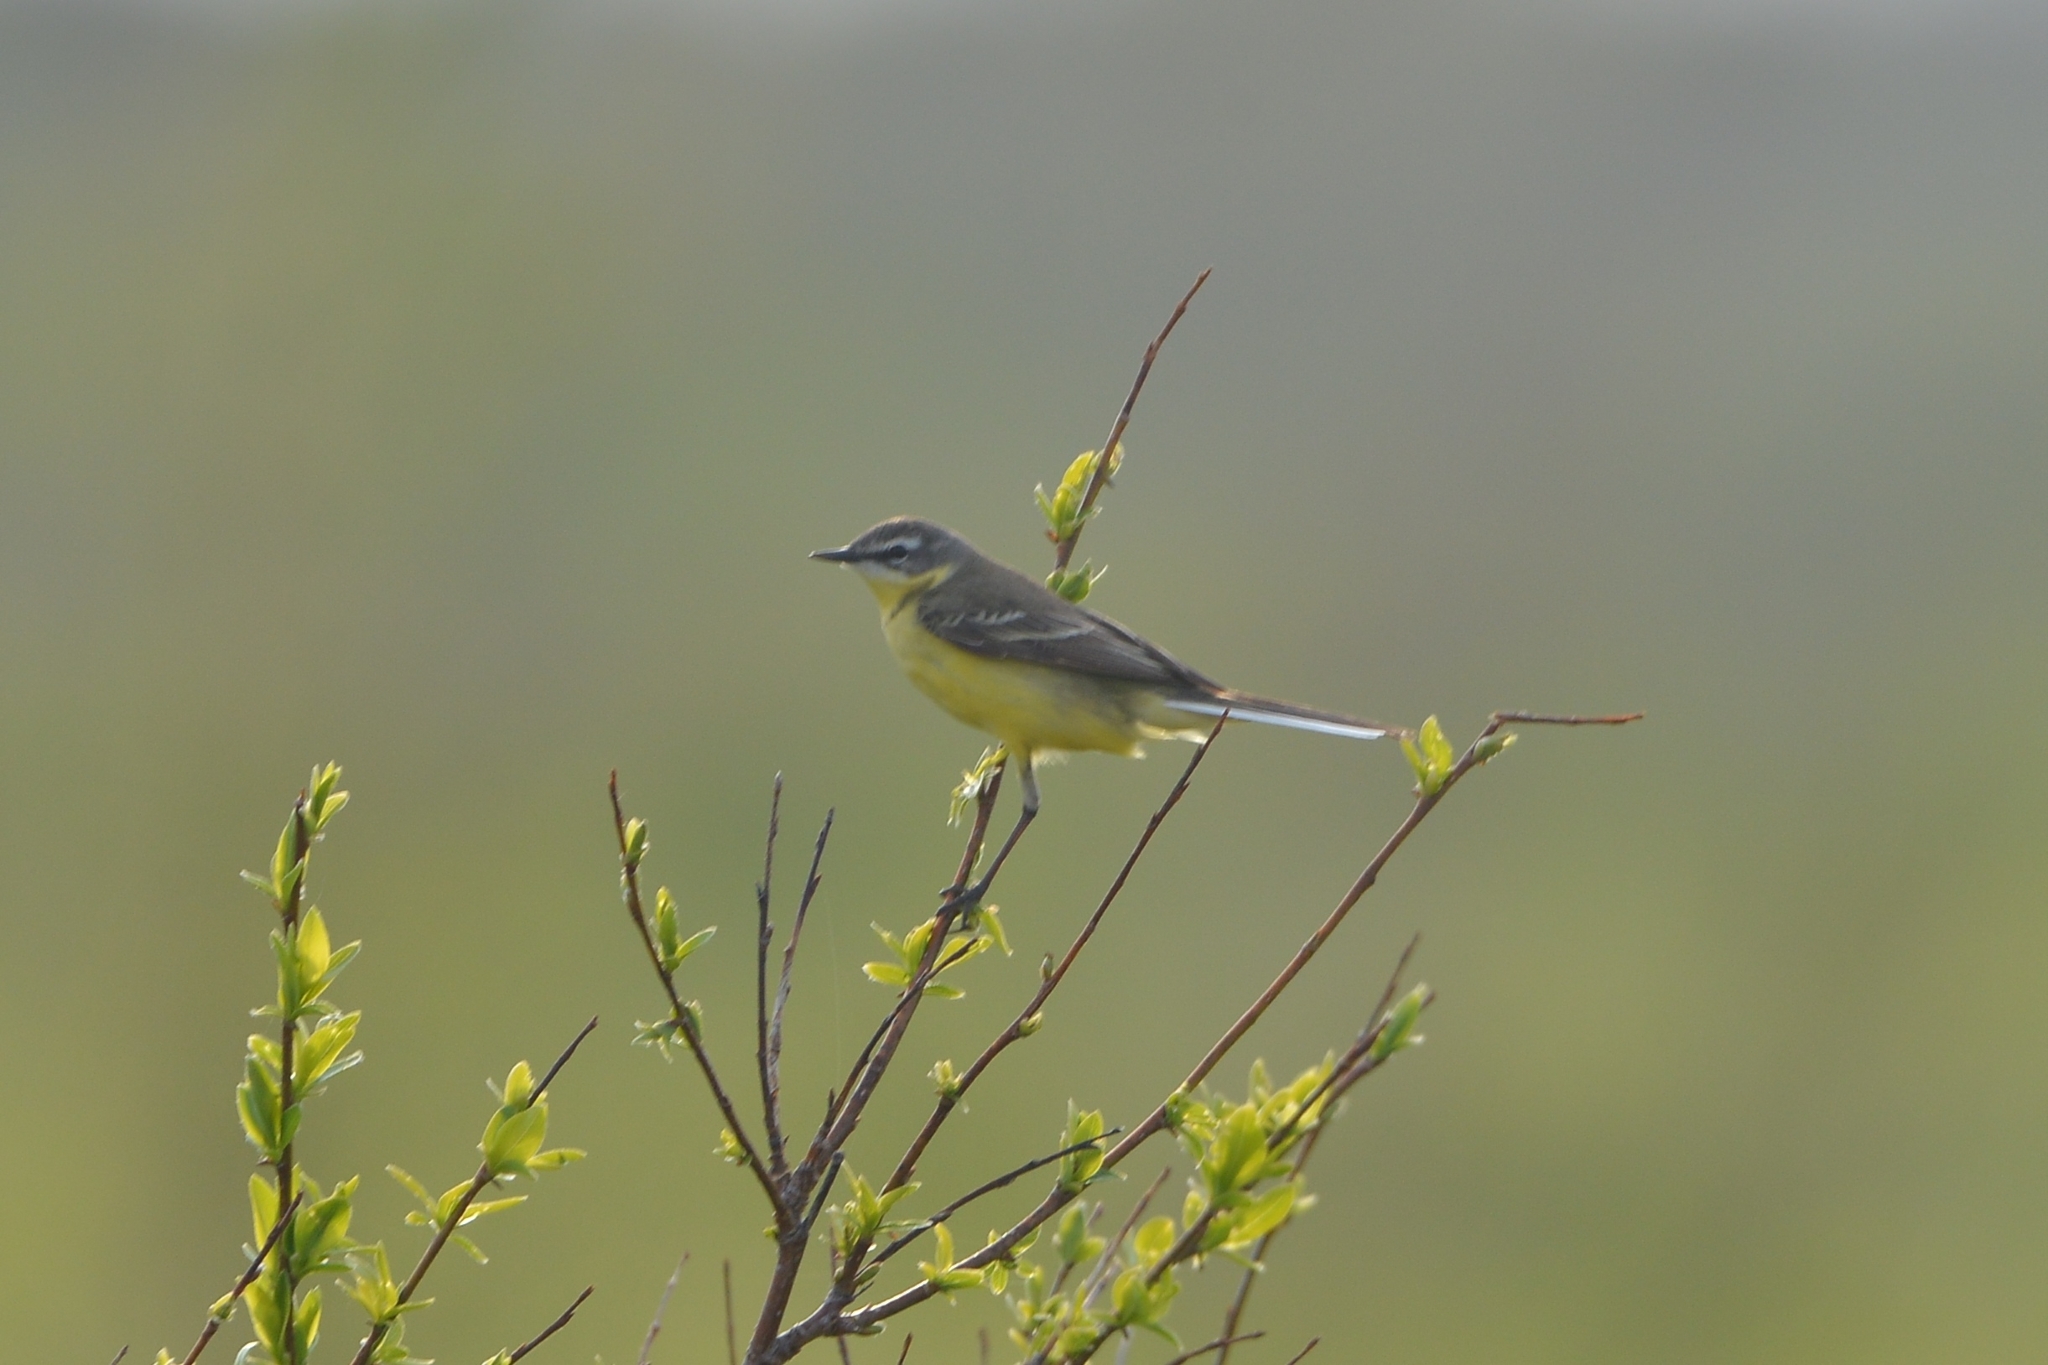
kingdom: Animalia
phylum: Chordata
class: Aves
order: Passeriformes
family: Motacillidae
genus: Motacilla
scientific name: Motacilla tschutschensis
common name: Eastern yellow wagtail
